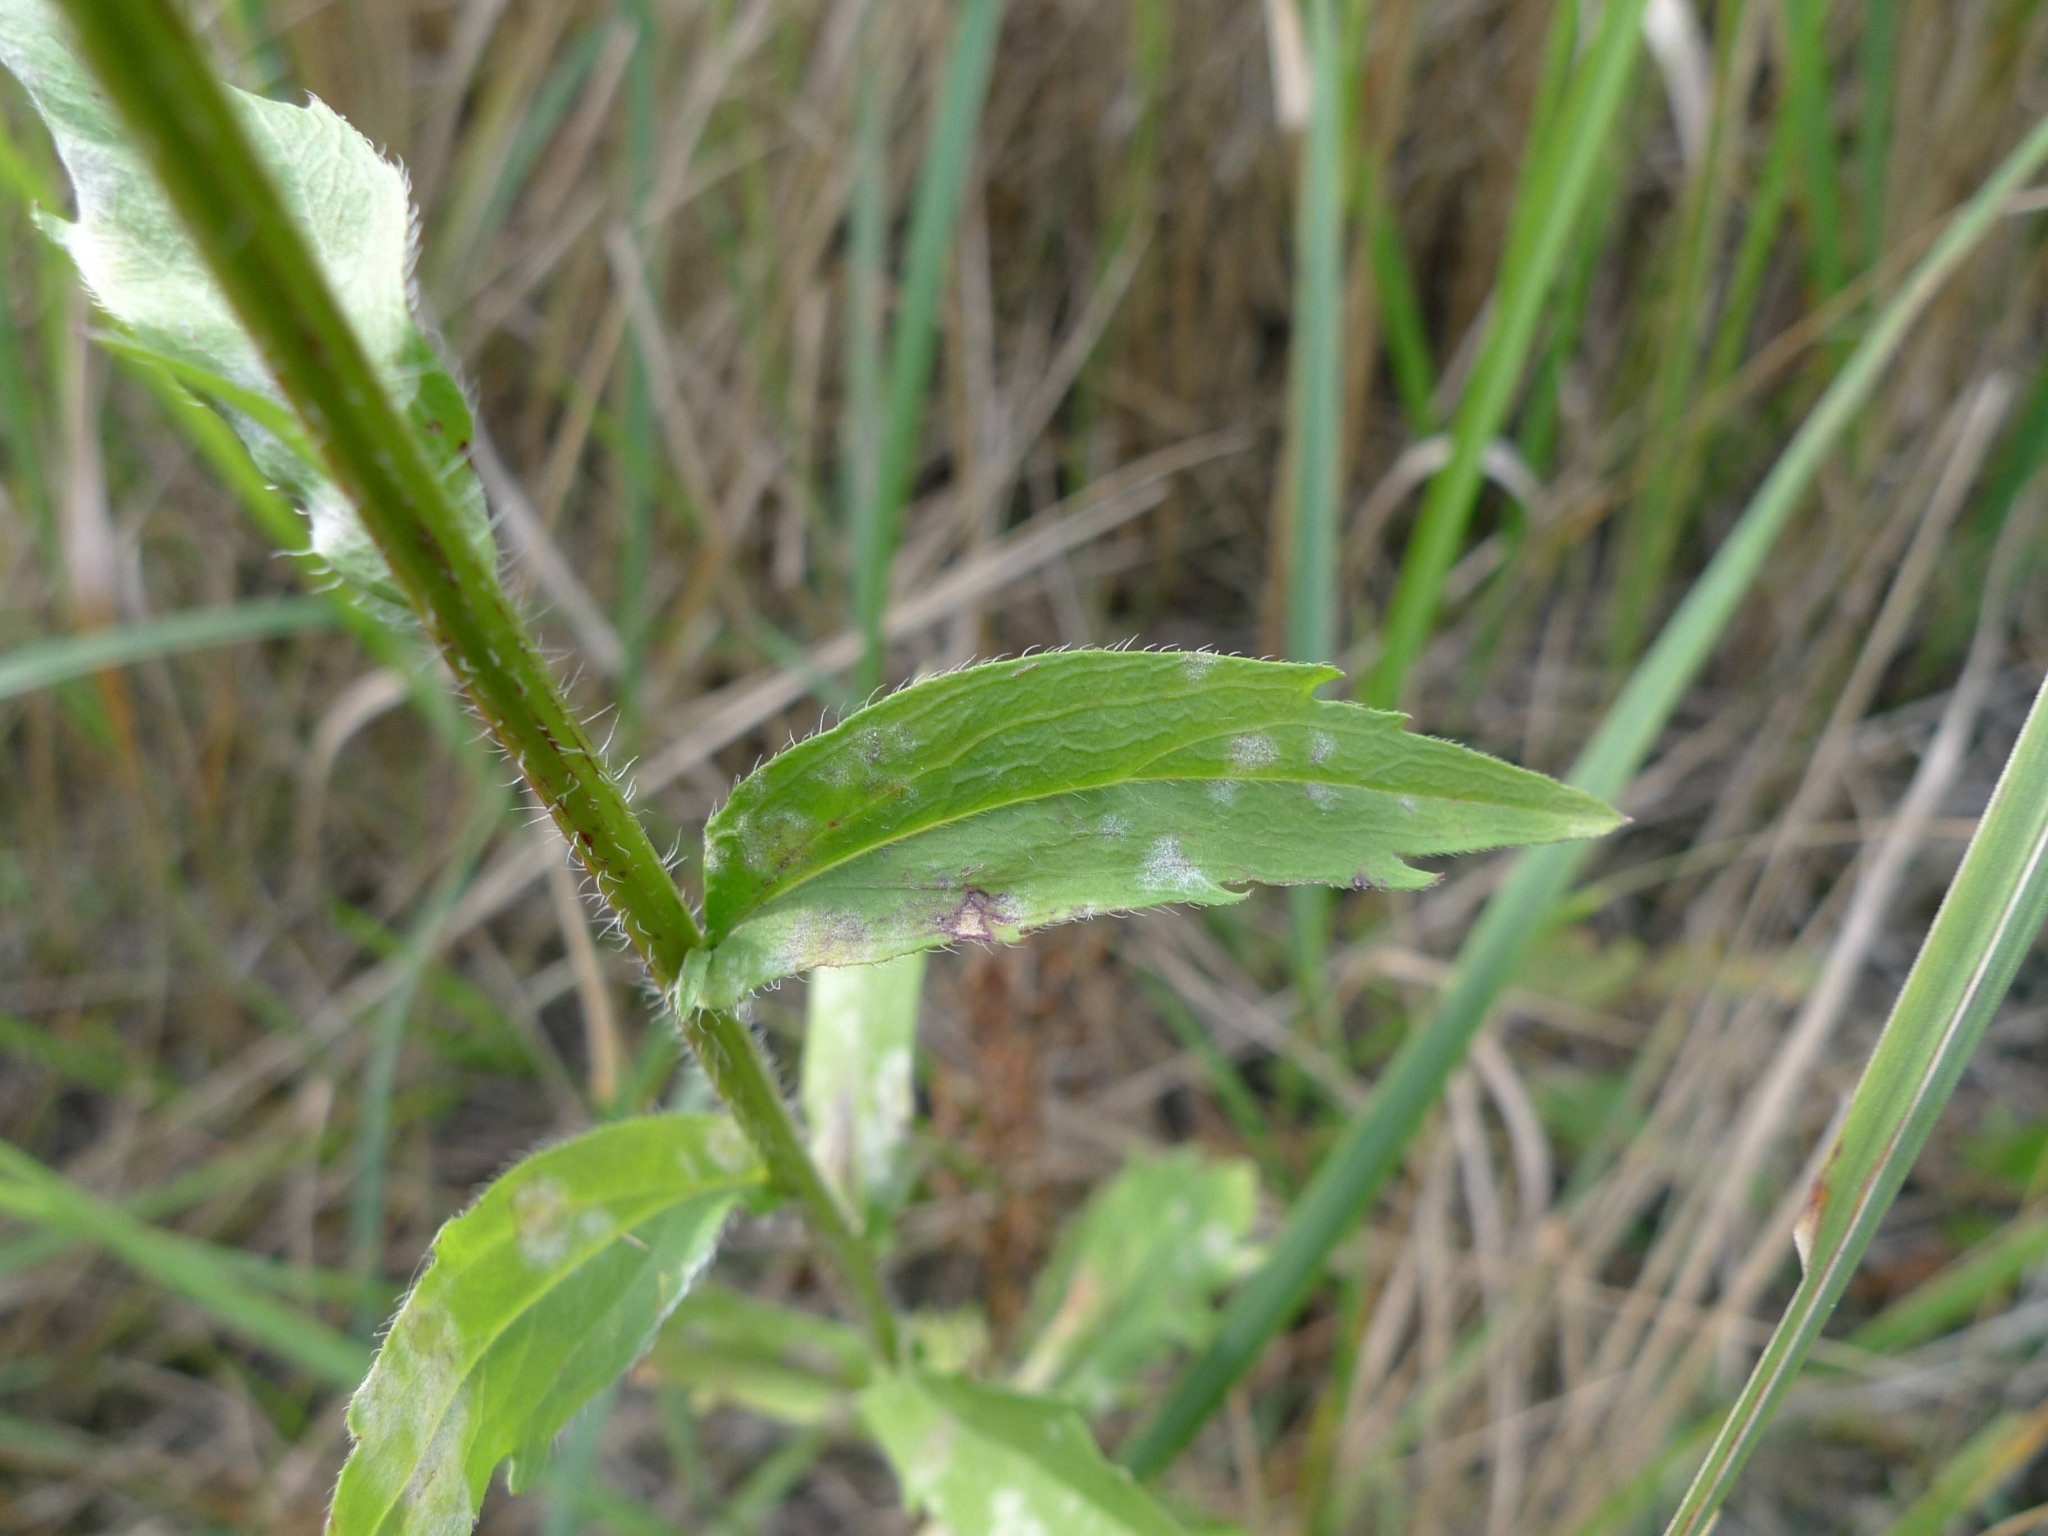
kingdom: Plantae
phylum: Tracheophyta
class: Magnoliopsida
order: Asterales
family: Asteraceae
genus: Erigeron
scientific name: Erigeron annuus
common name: Tall fleabane
